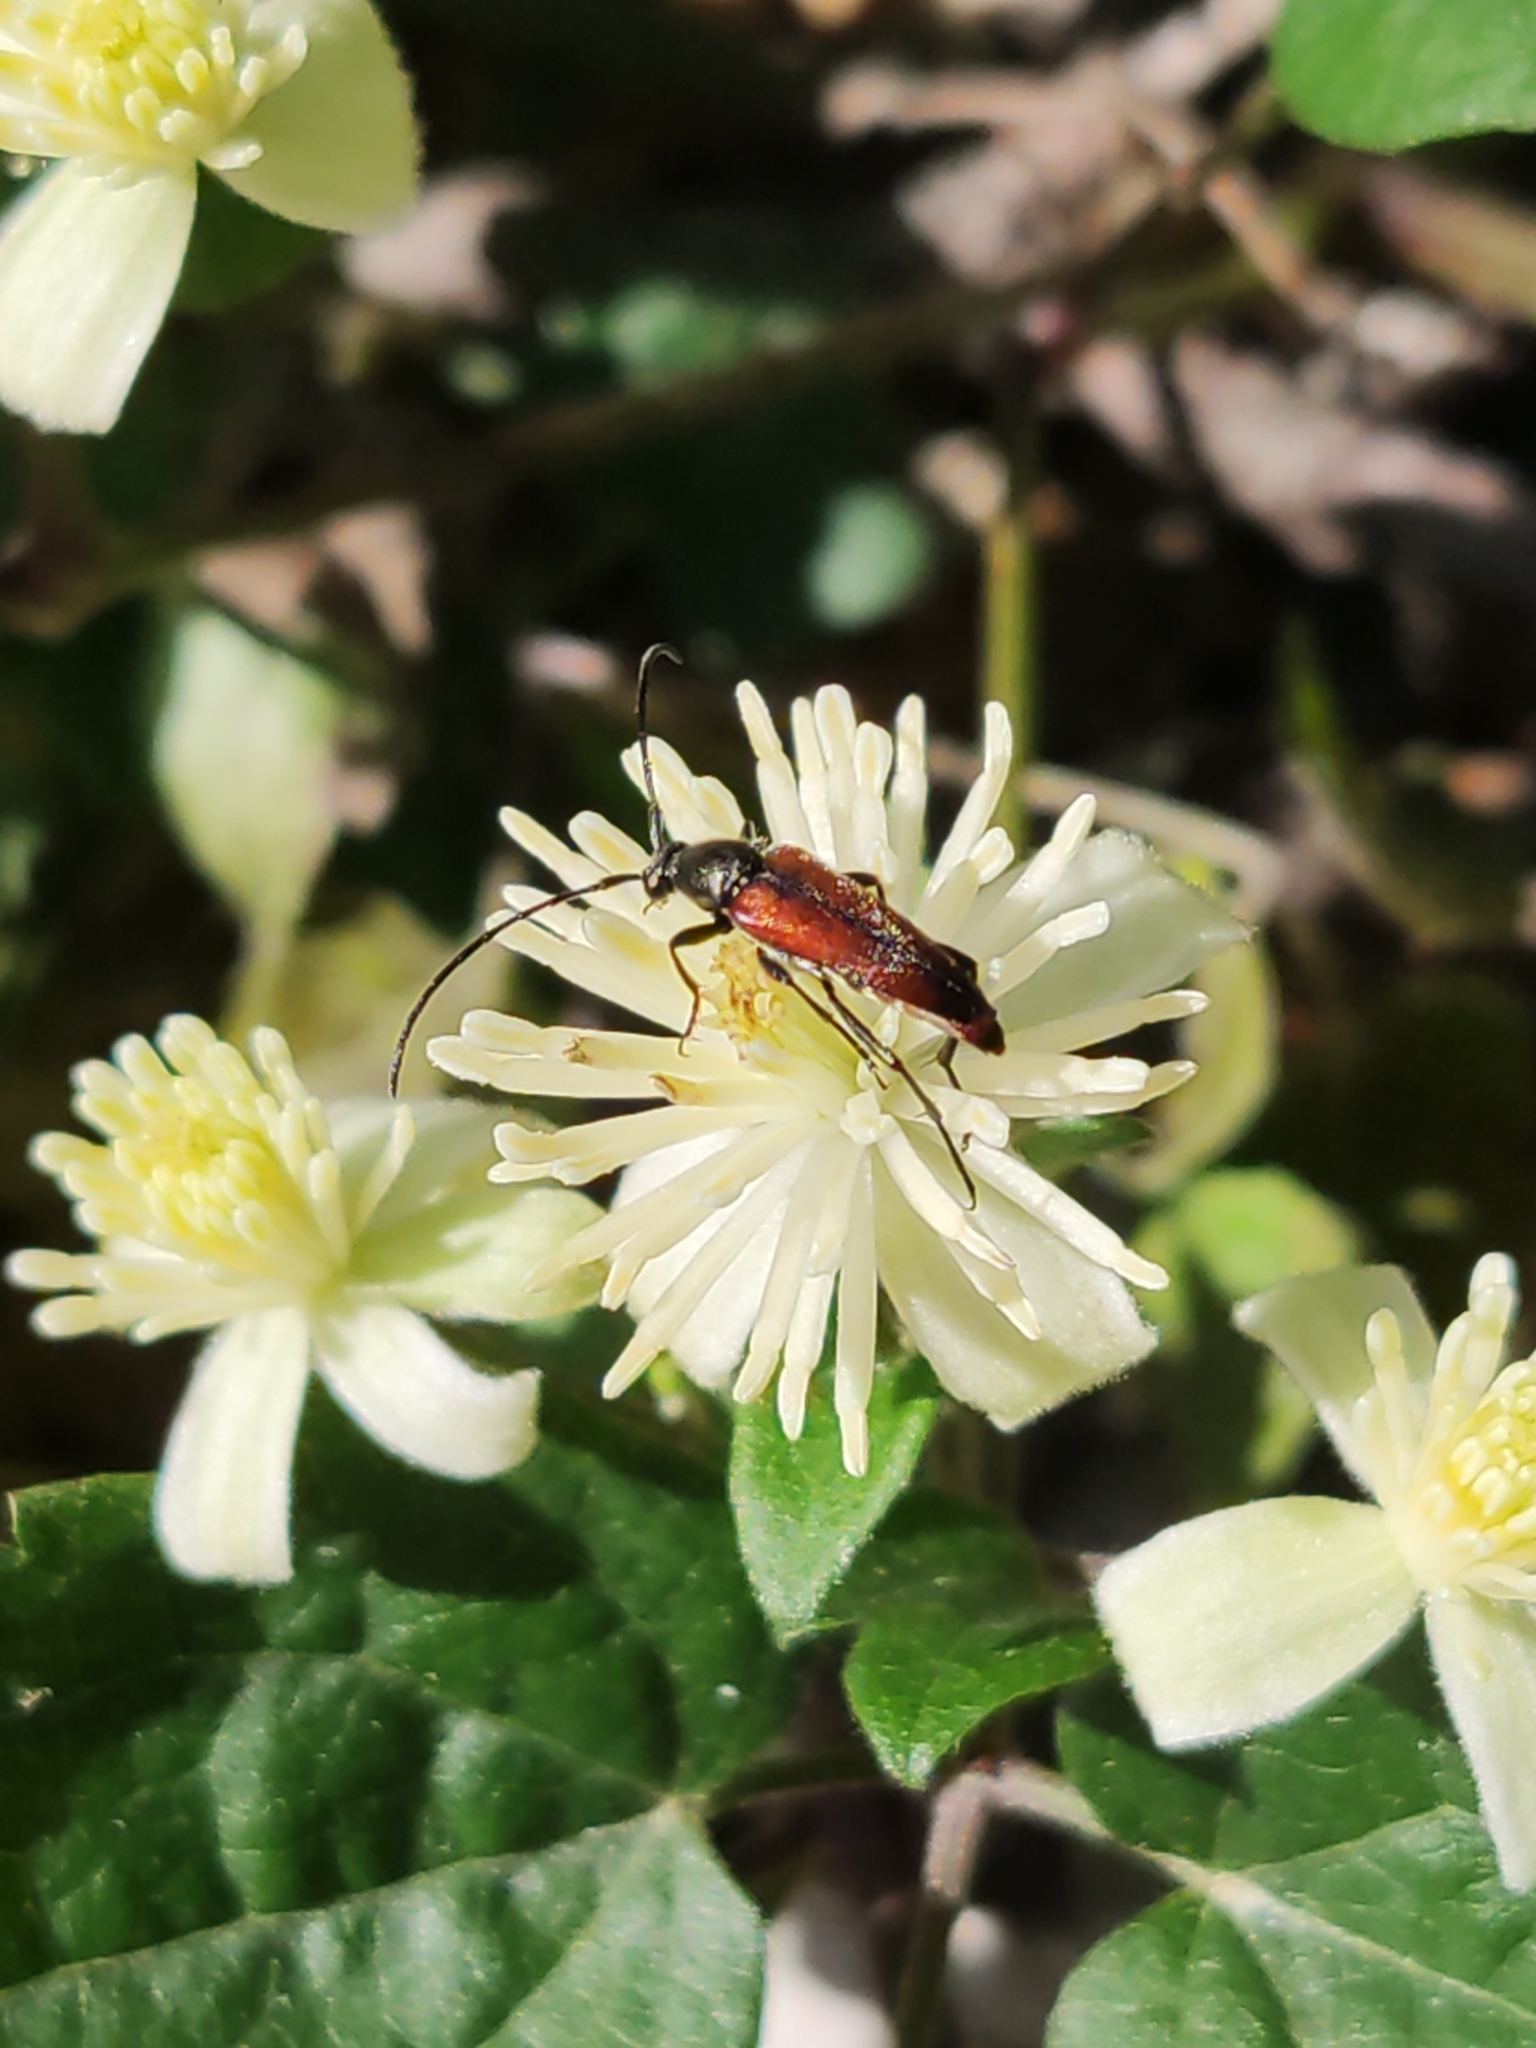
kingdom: Animalia
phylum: Arthropoda
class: Insecta
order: Coleoptera
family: Cerambycidae
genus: Stenurella
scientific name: Stenurella bifasciata
